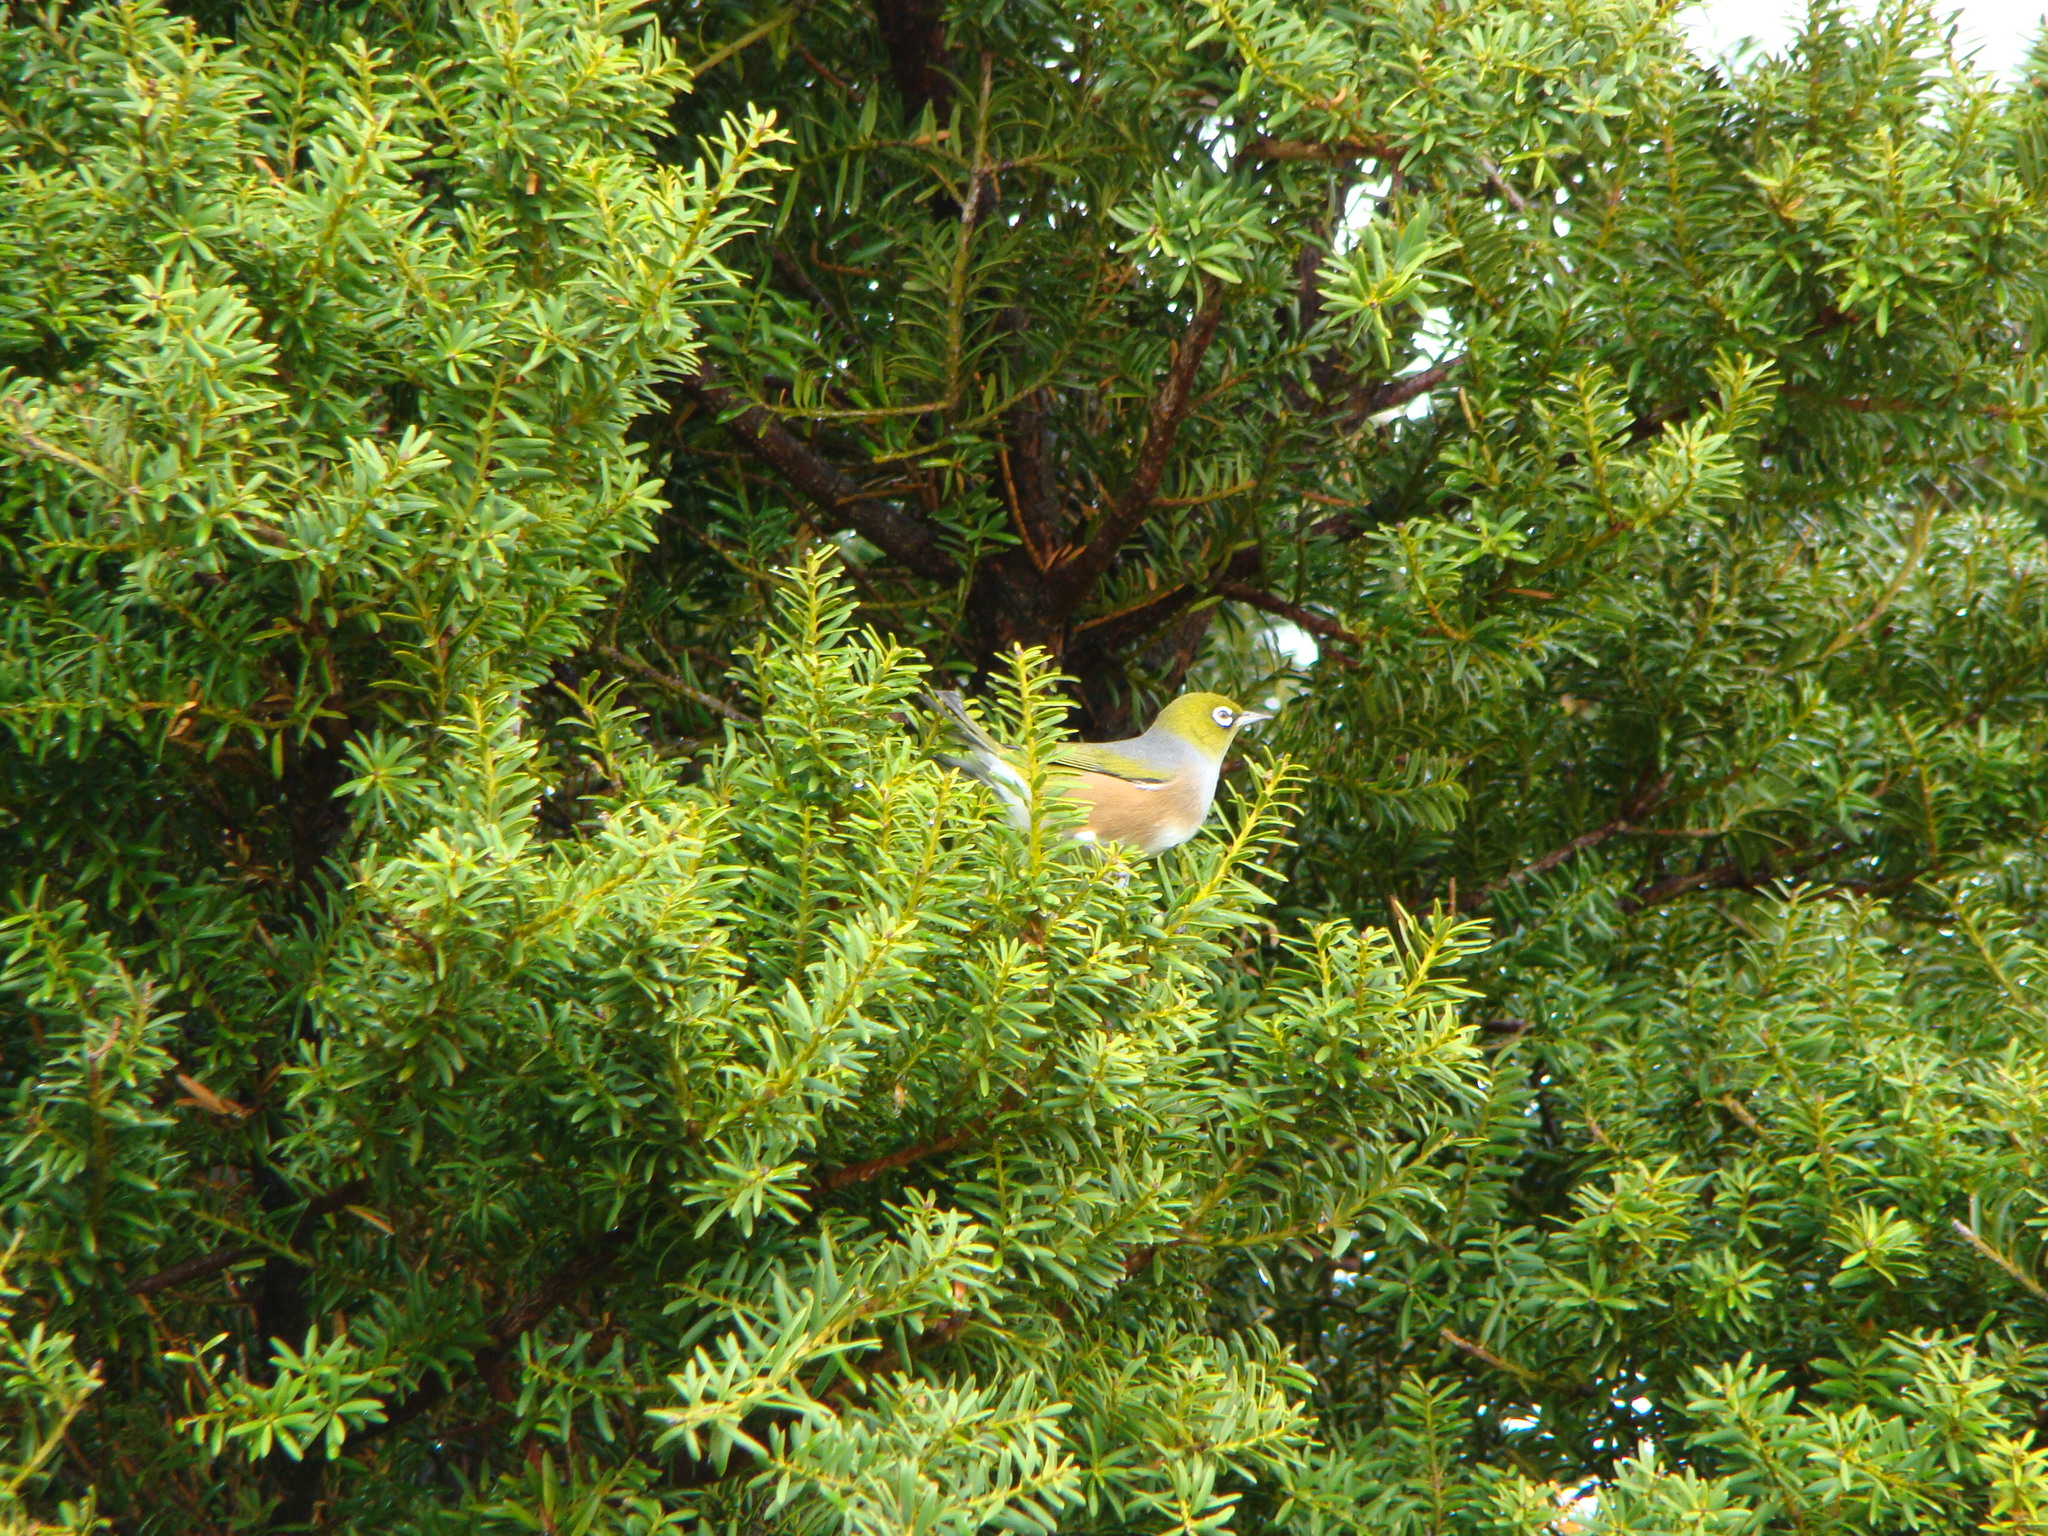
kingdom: Animalia
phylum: Chordata
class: Aves
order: Passeriformes
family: Zosteropidae
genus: Zosterops
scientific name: Zosterops lateralis
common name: Silvereye
